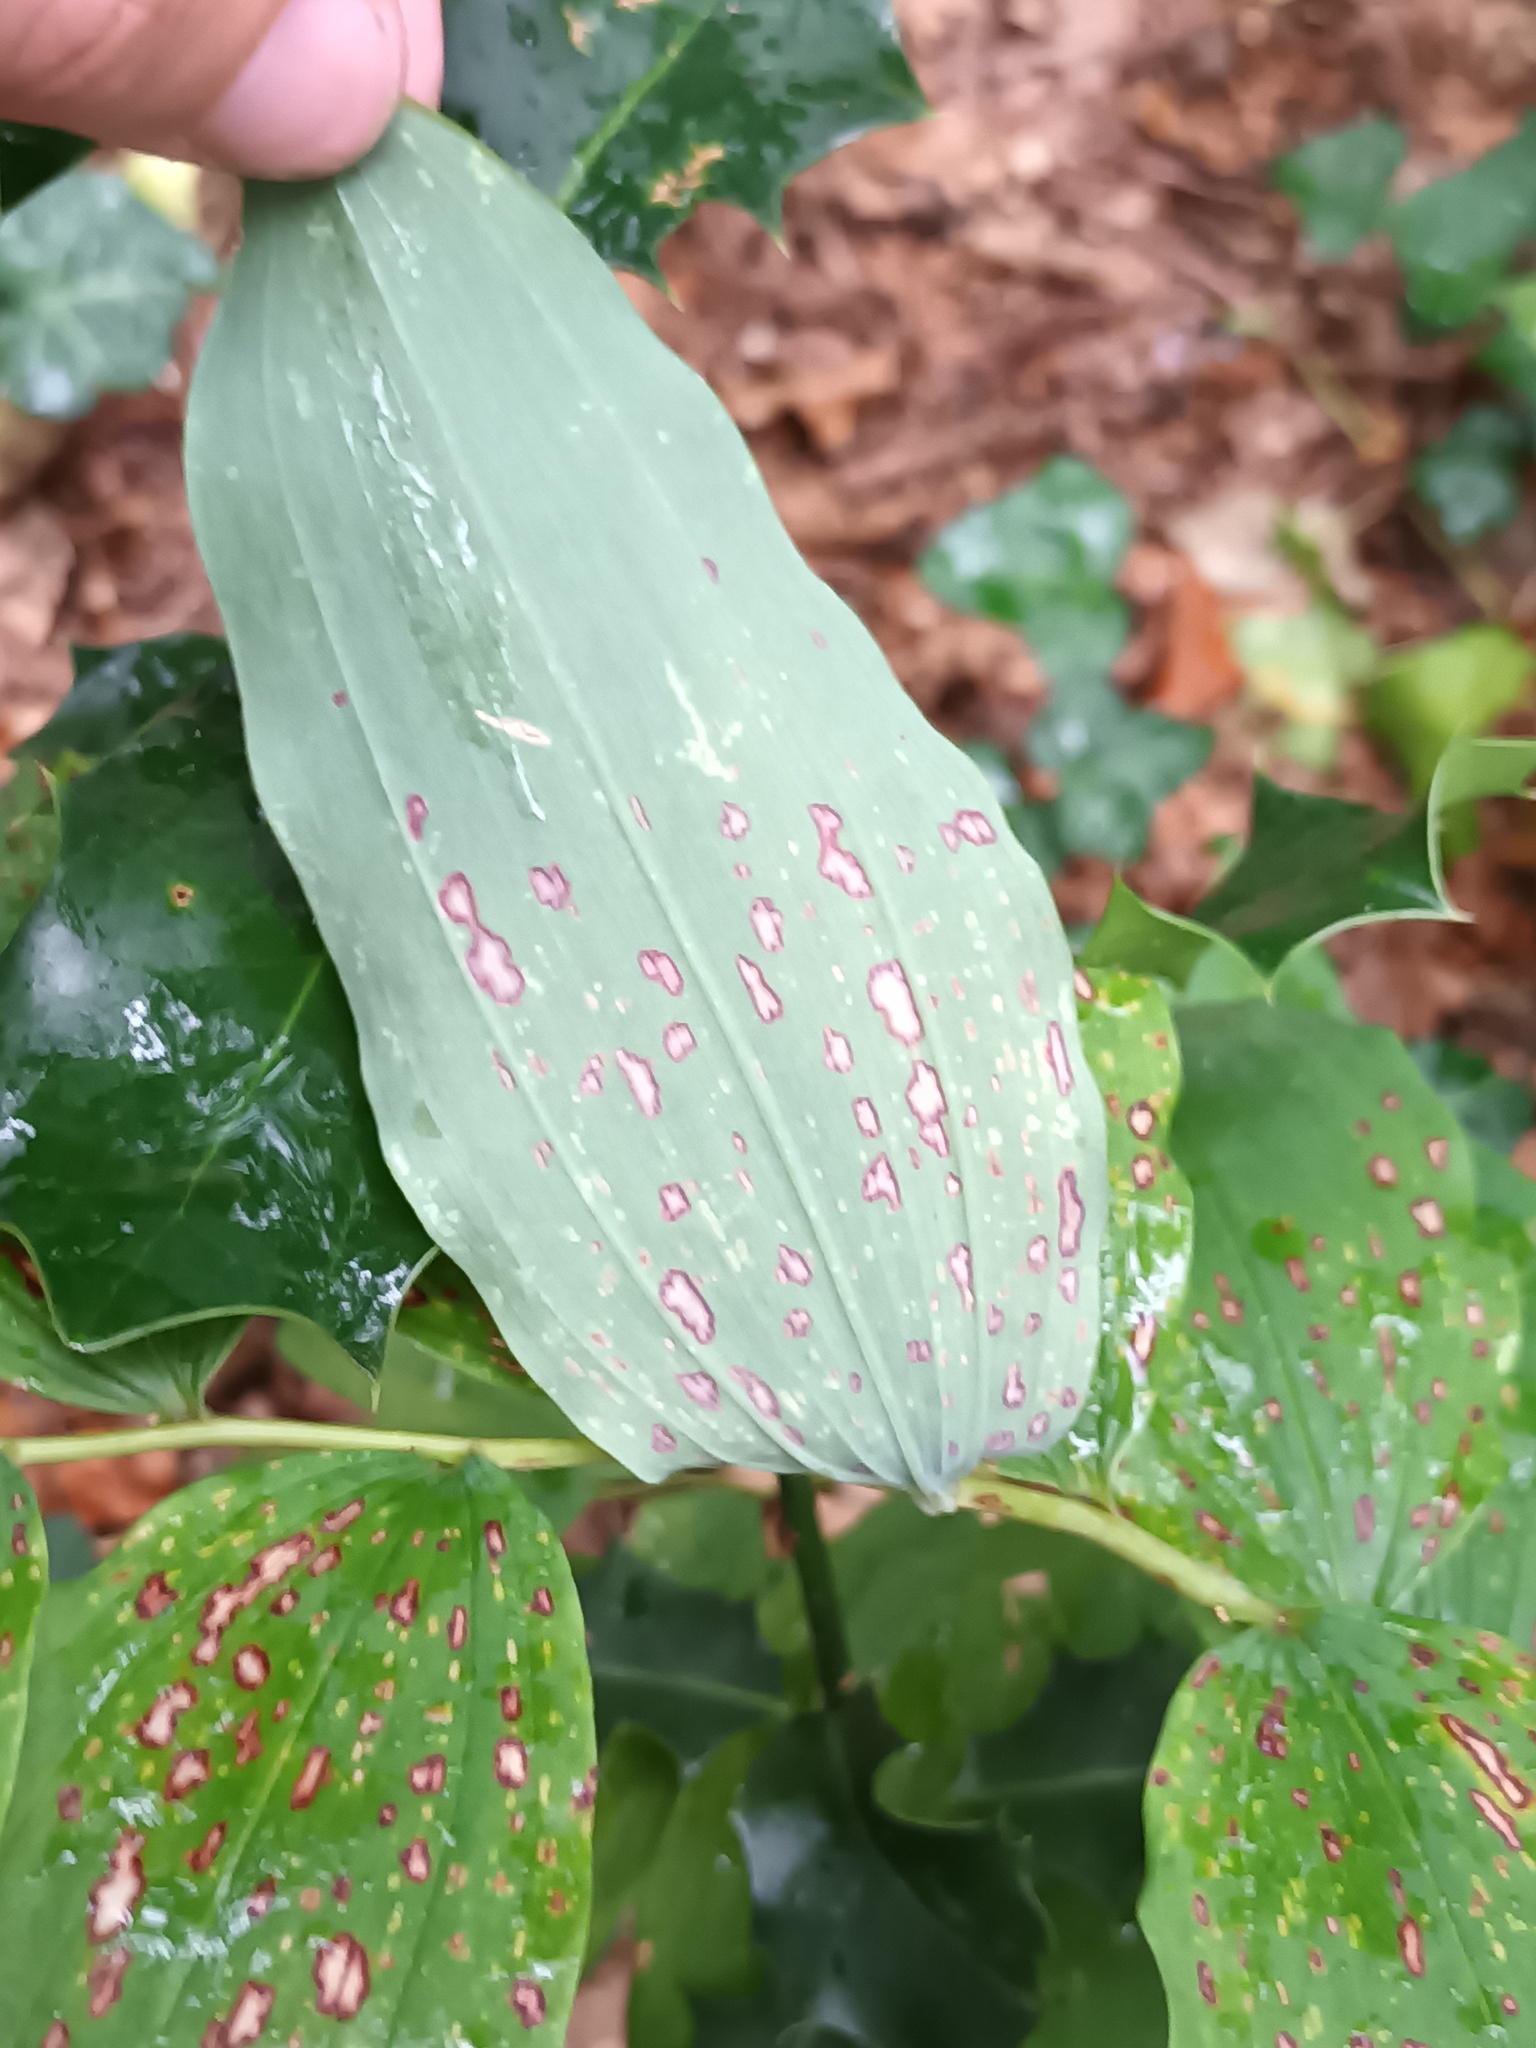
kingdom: Fungi
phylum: Ascomycota
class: Dothideomycetes
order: Botryosphaeriales
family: Phyllostictaceae
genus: Phyllosticta
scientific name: Phyllosticta cruenta
